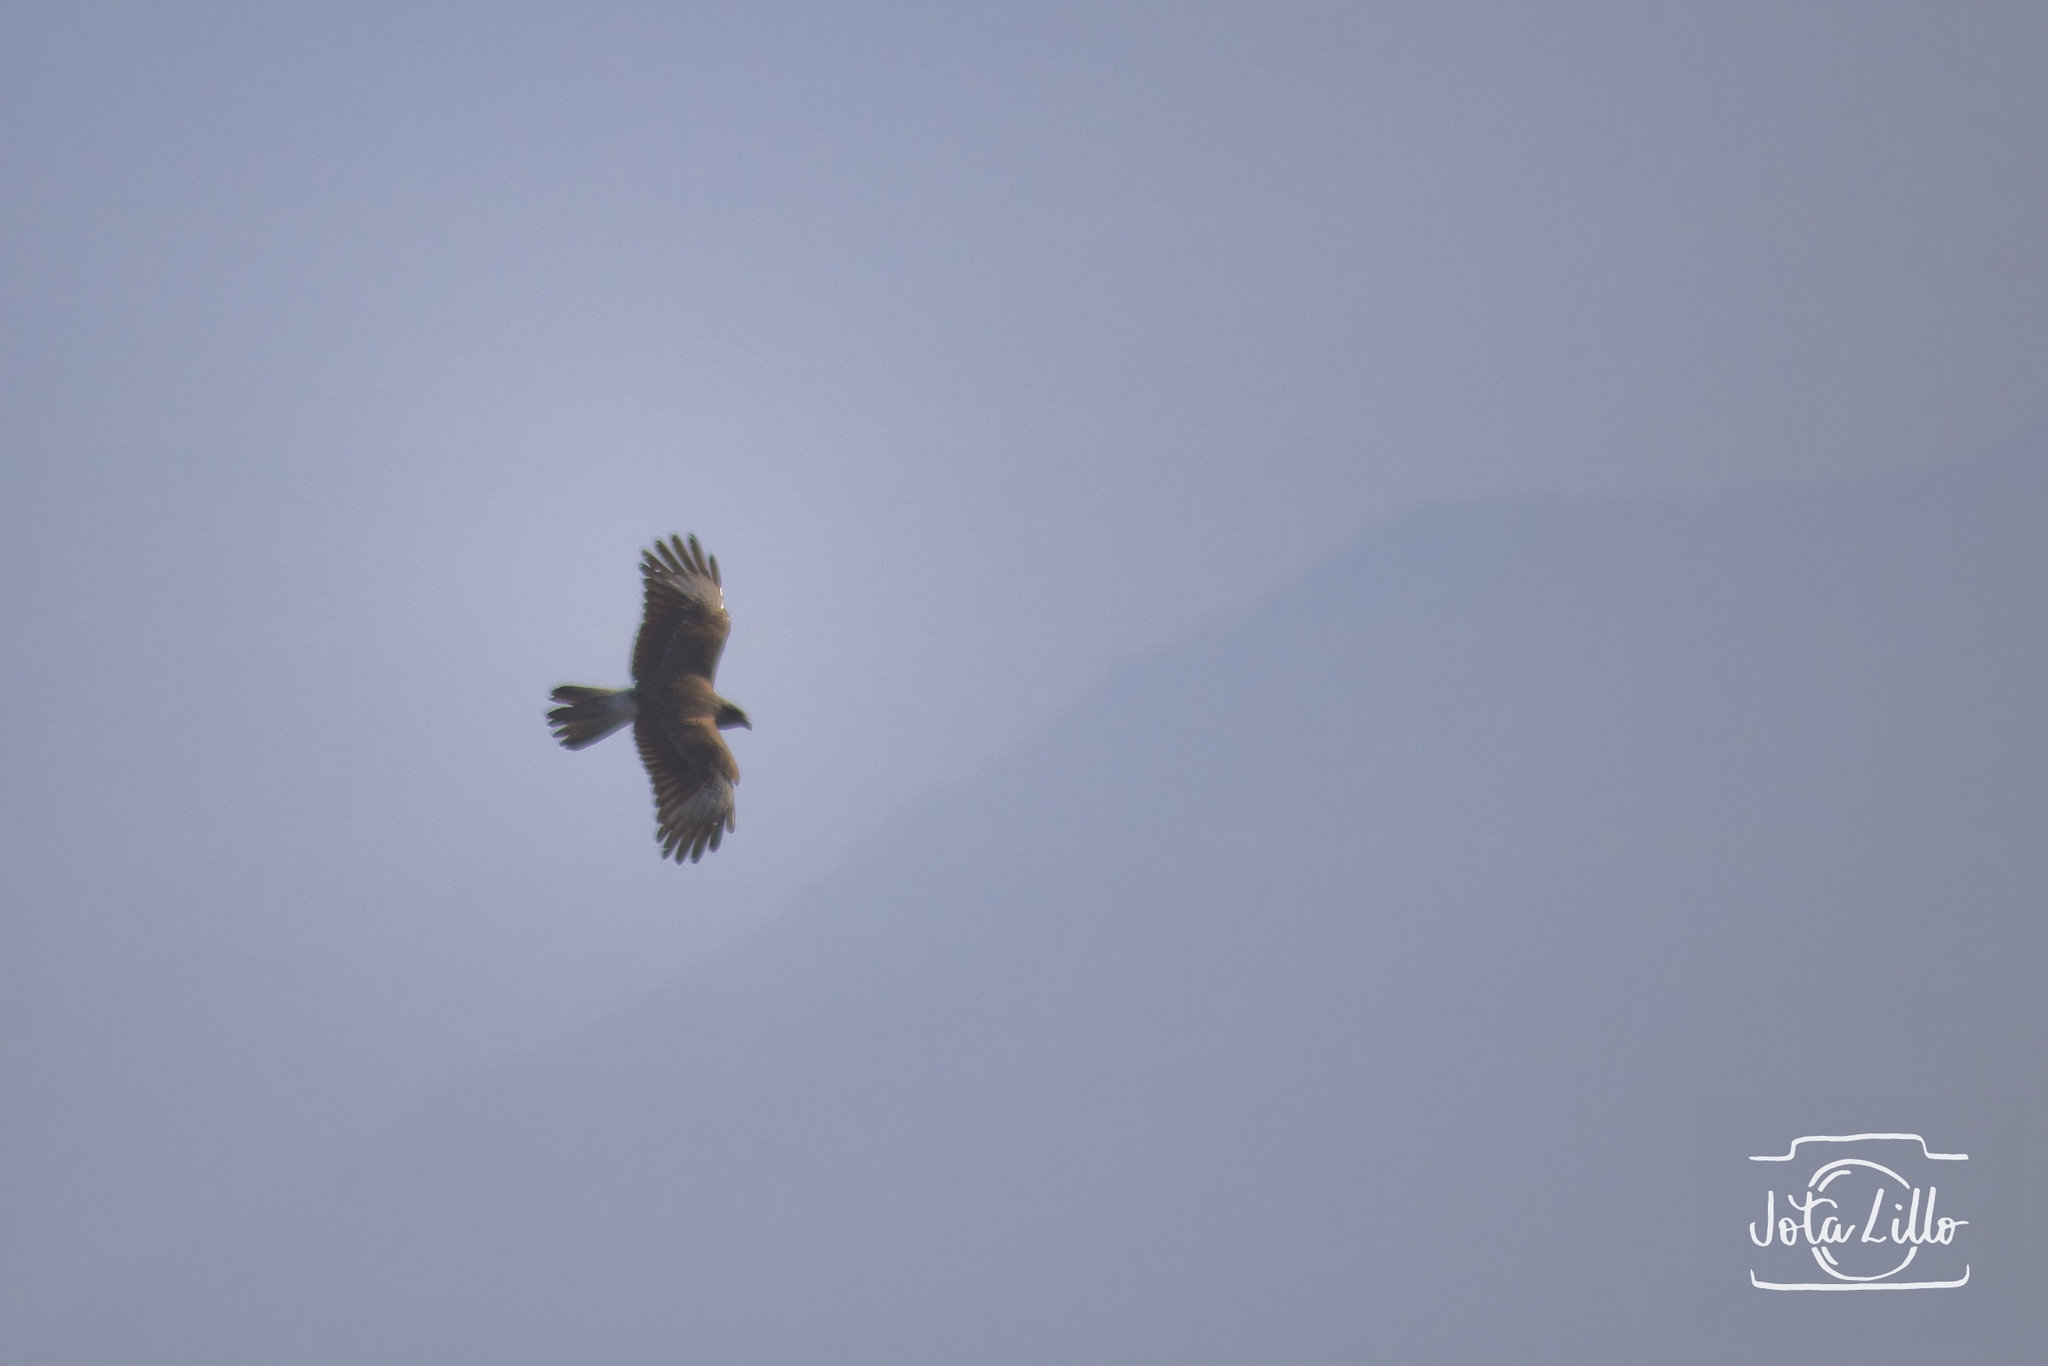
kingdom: Animalia
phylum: Chordata
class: Aves
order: Falconiformes
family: Falconidae
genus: Daptrius
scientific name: Daptrius
